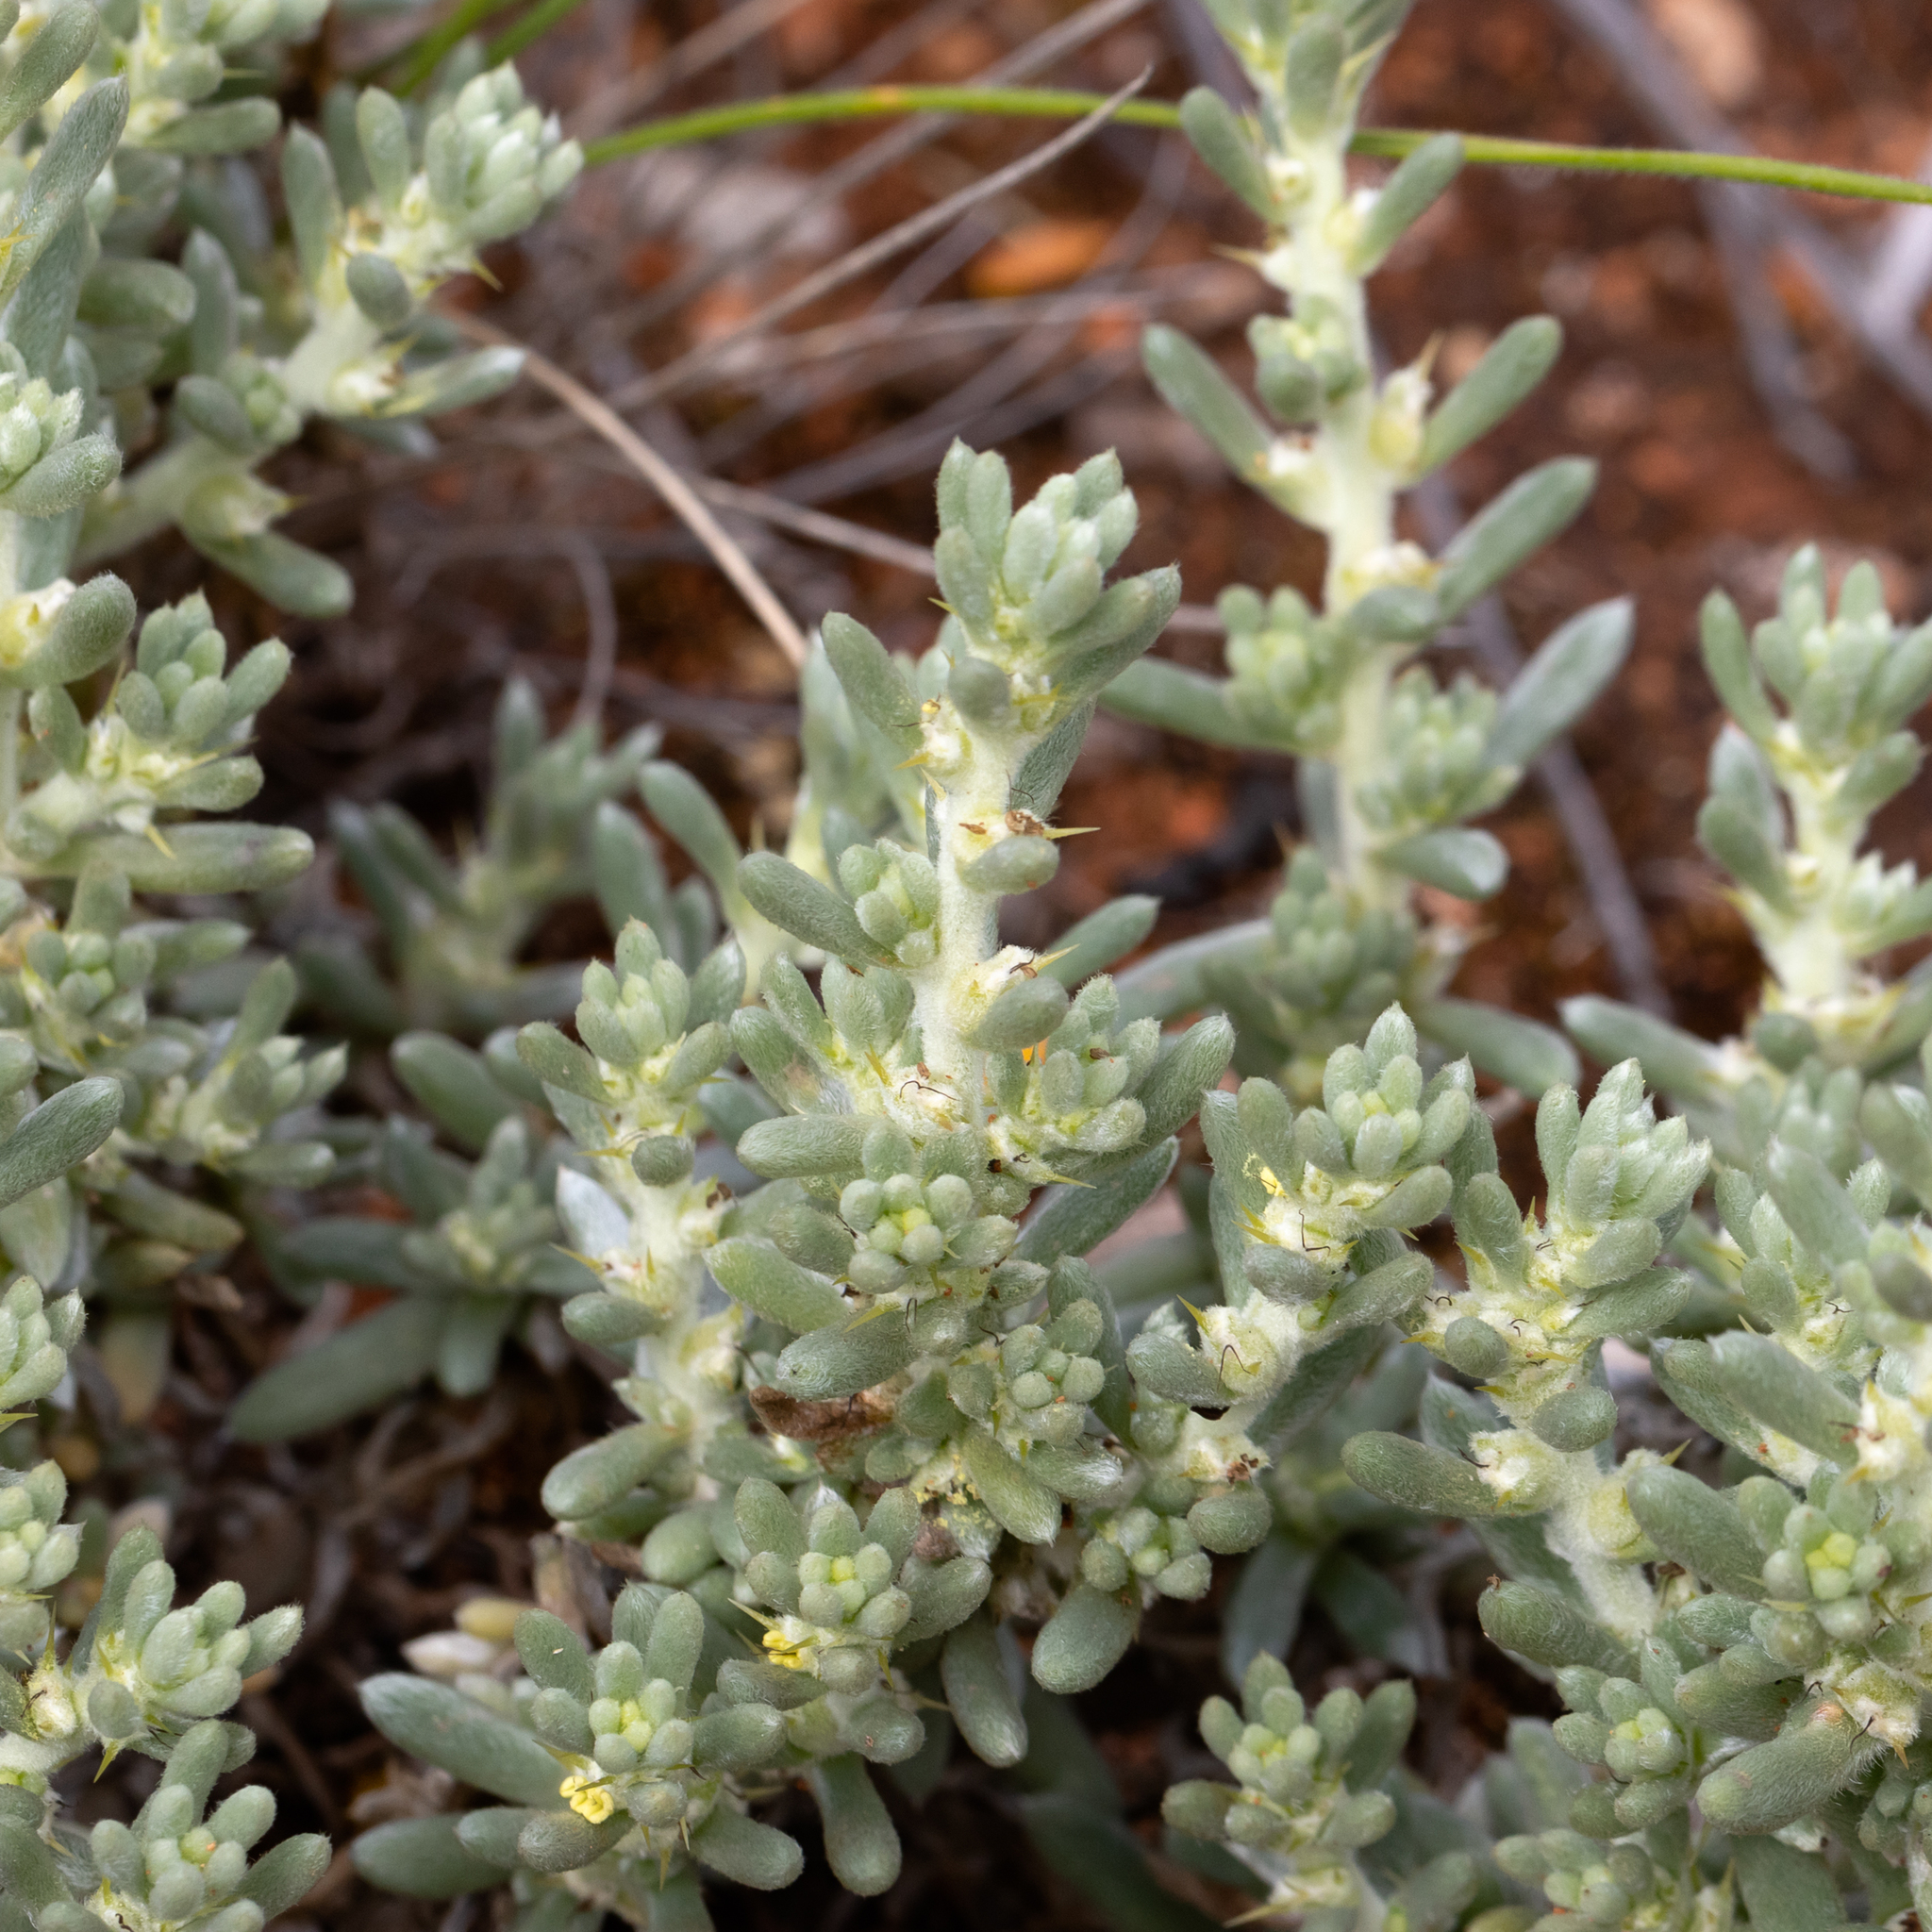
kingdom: Plantae
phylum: Tracheophyta
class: Magnoliopsida
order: Caryophyllales
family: Amaranthaceae
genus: Sclerolaena
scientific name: Sclerolaena diacantha
